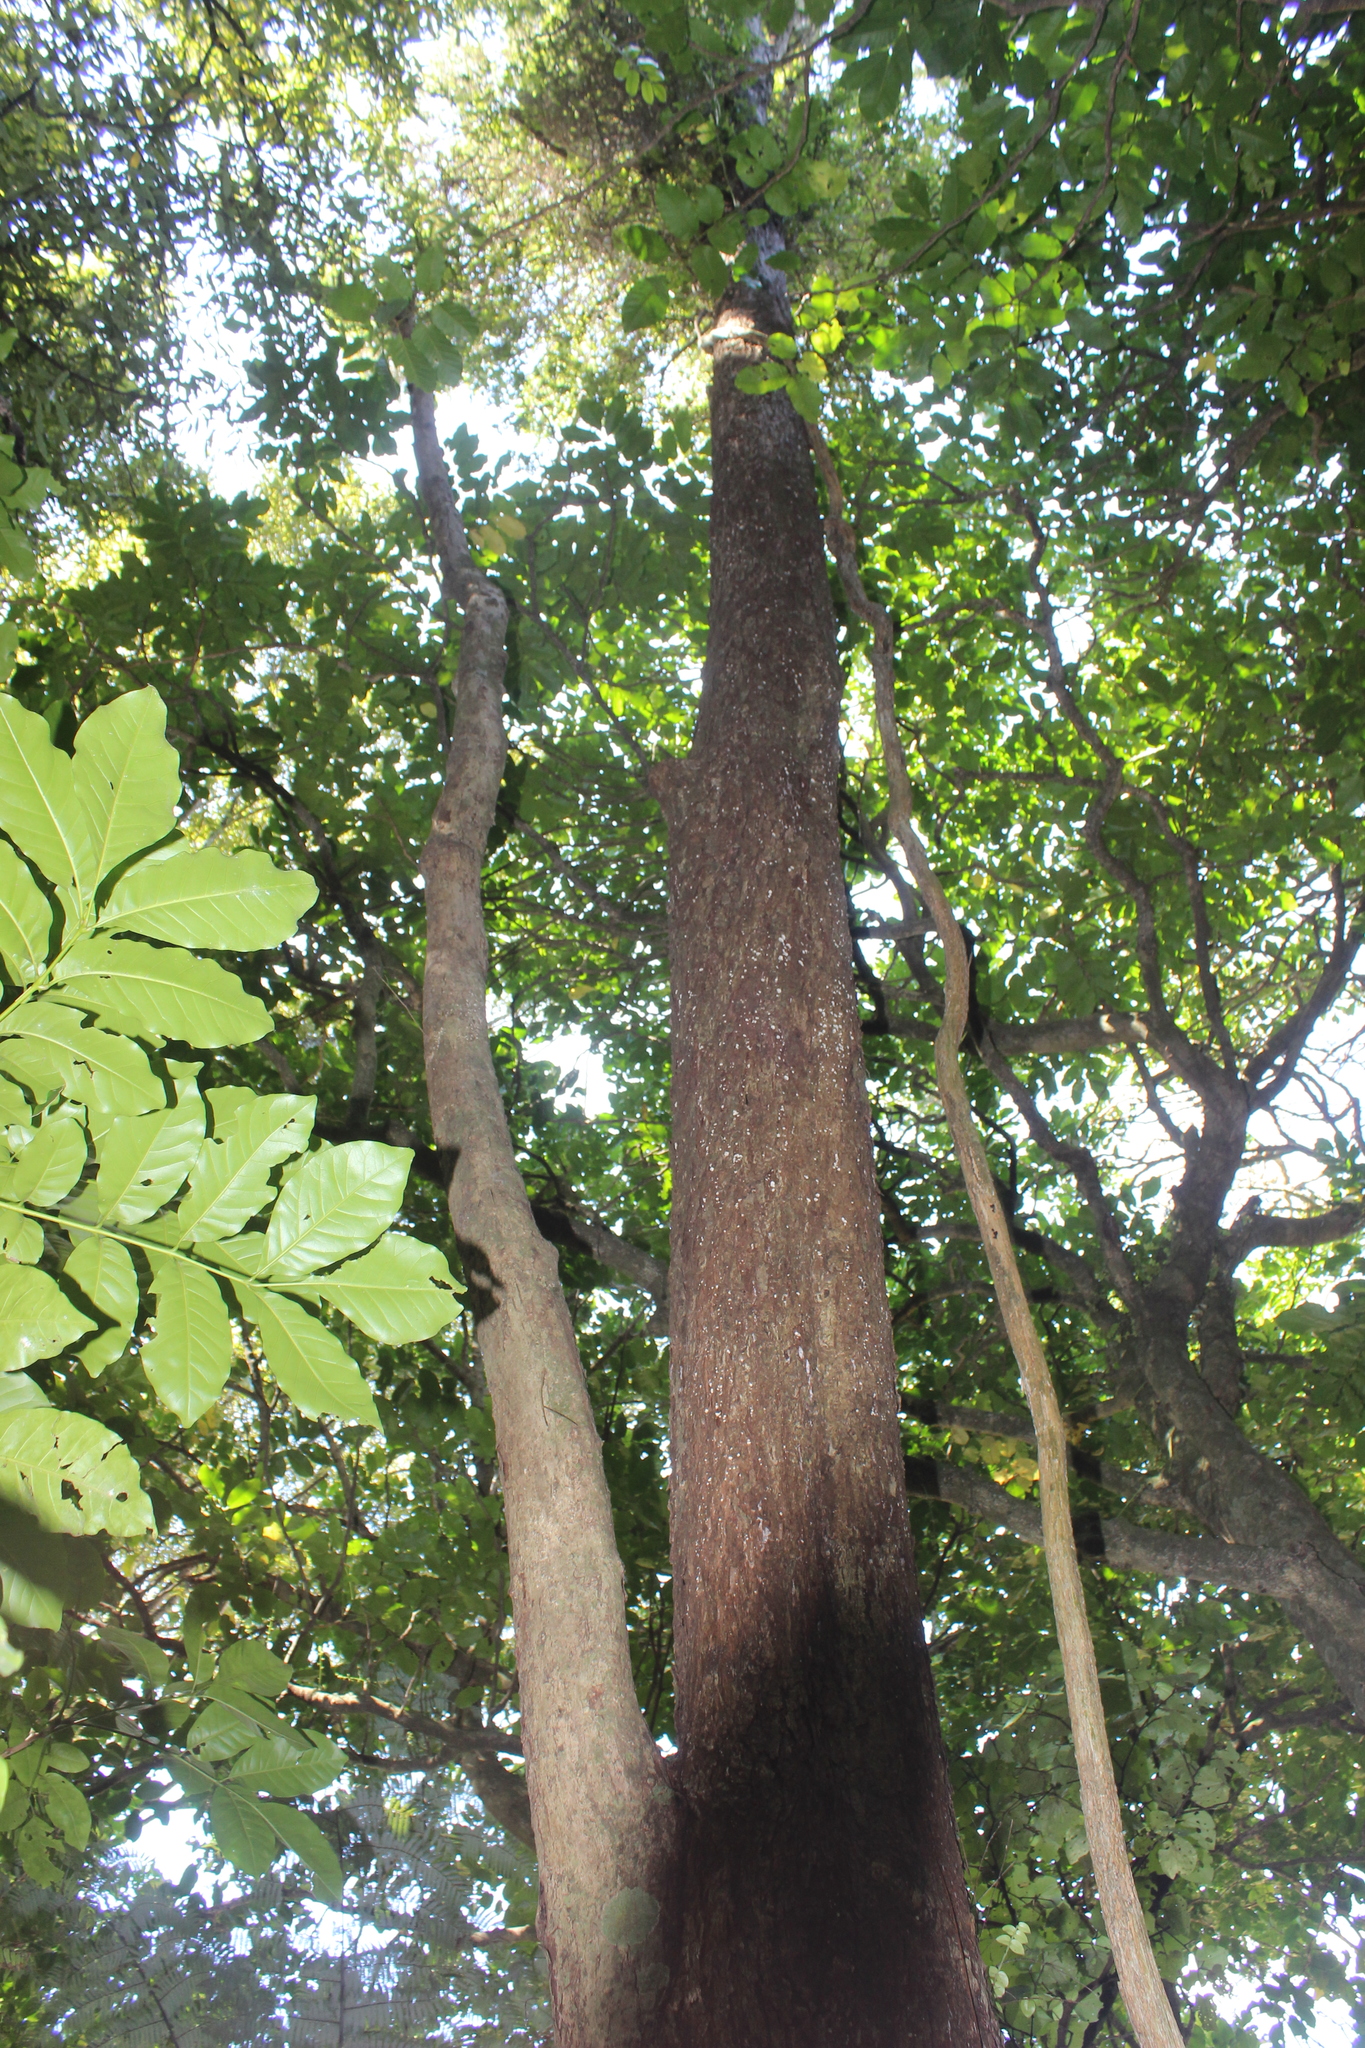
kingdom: Plantae
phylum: Tracheophyta
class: Magnoliopsida
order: Myrtales
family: Myrtaceae
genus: Metrosideros
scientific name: Metrosideros robusta
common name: Northern rata
